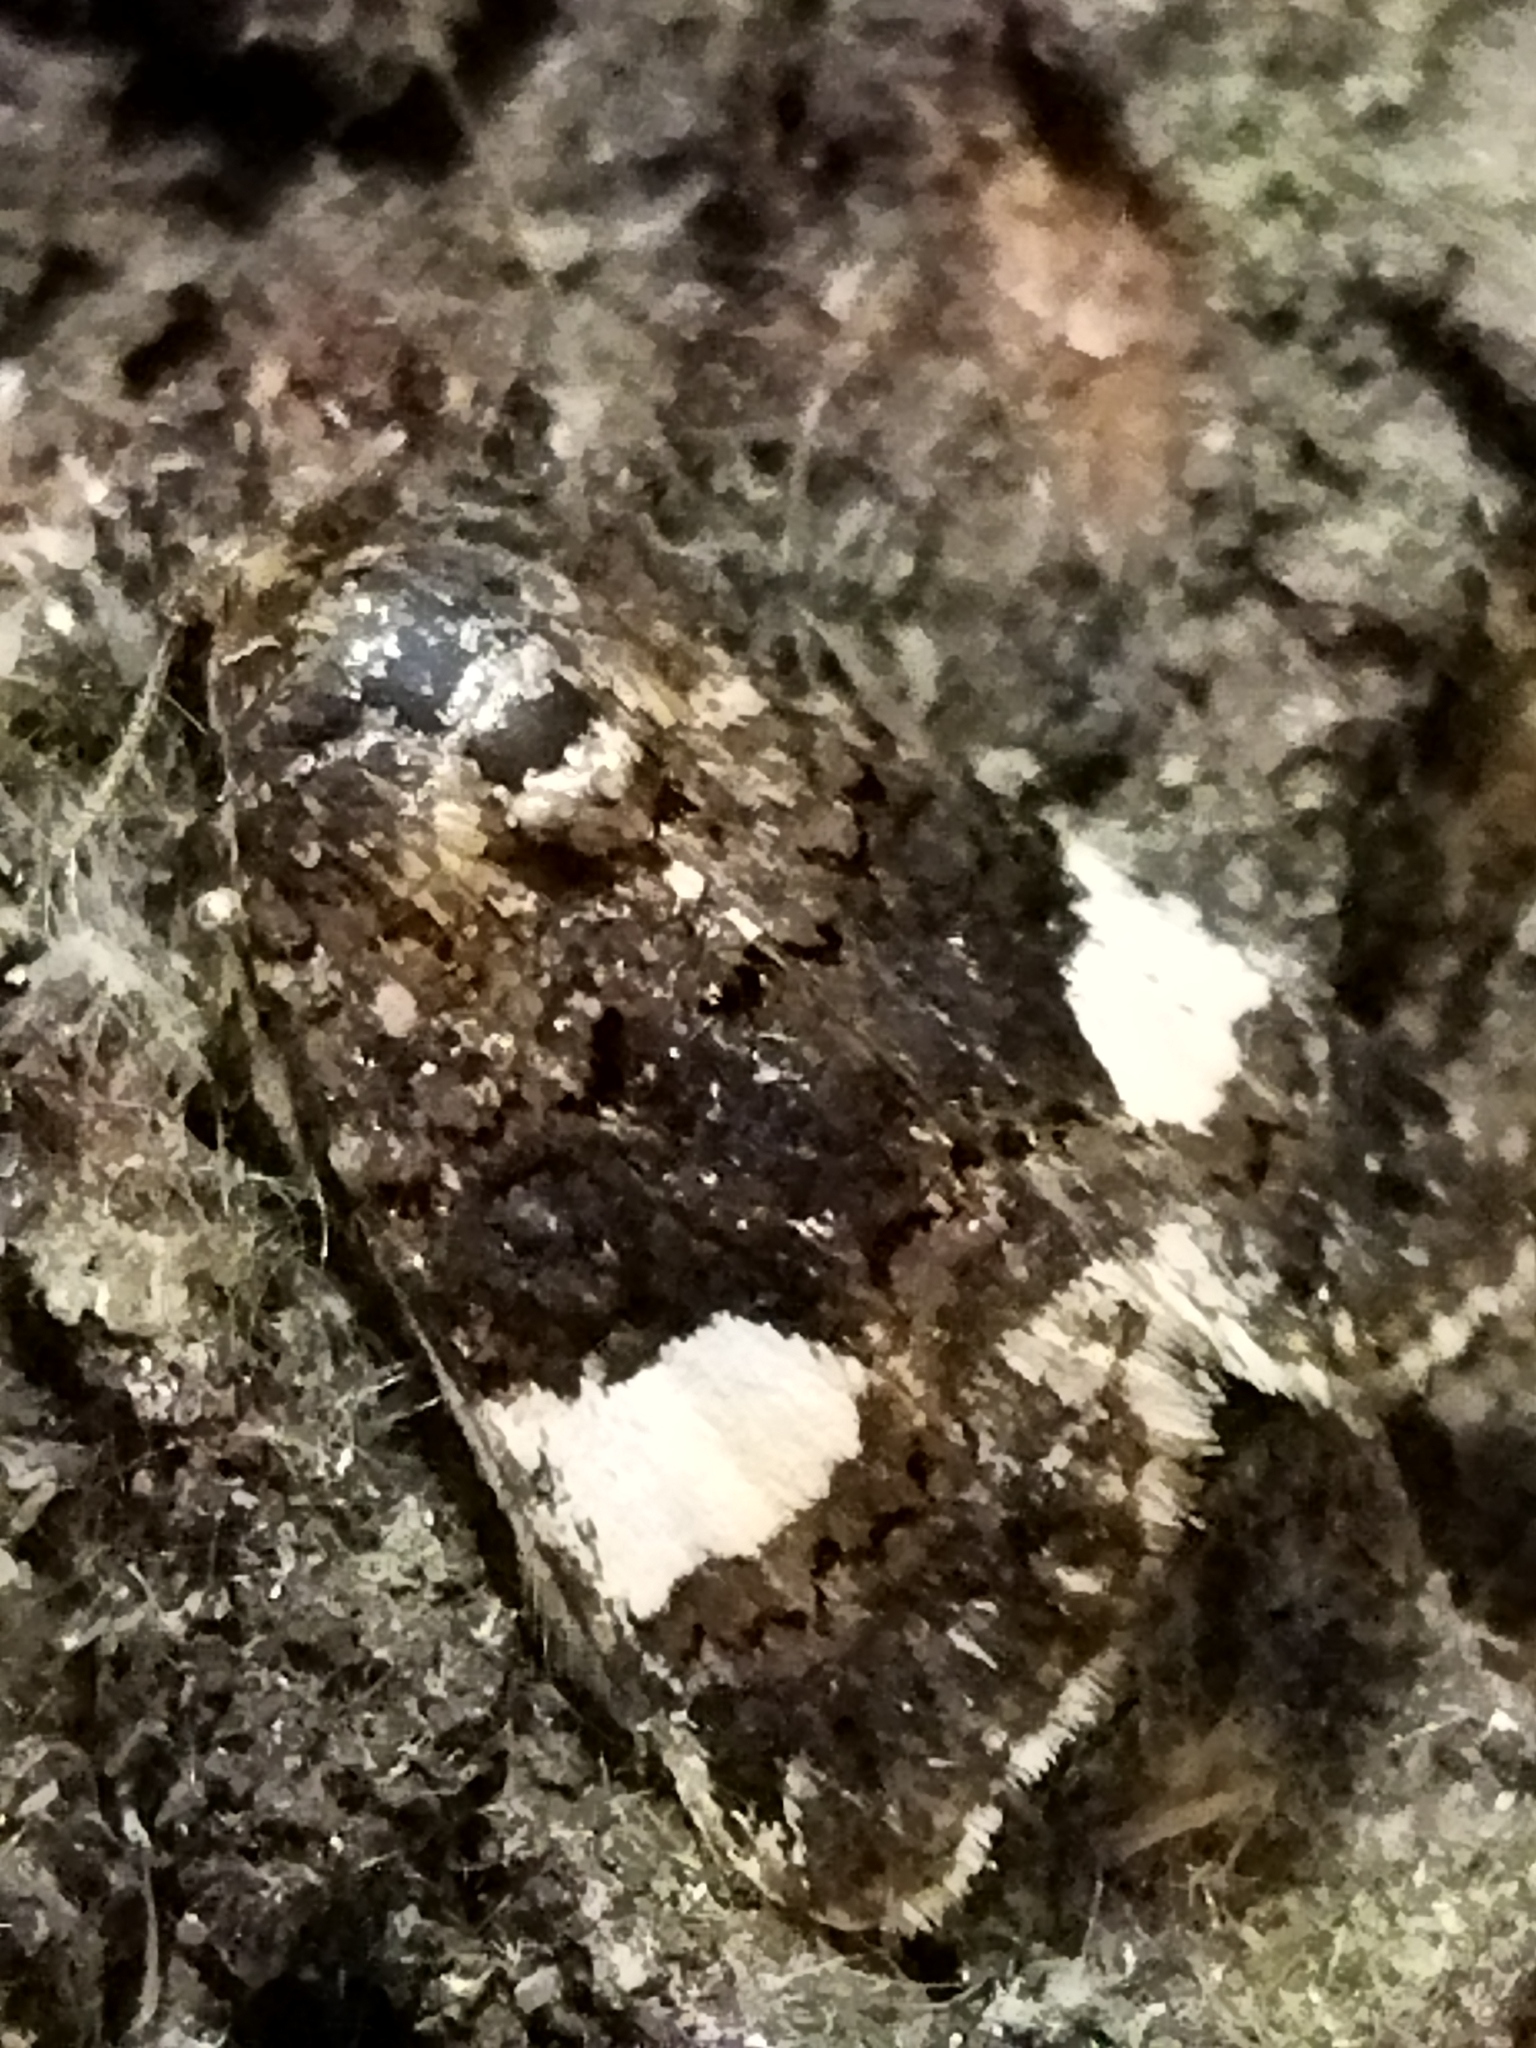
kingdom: Animalia
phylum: Arthropoda
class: Insecta
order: Lepidoptera
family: Erebidae
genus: Tyta
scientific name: Tyta luctuosa
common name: Four-spotted
